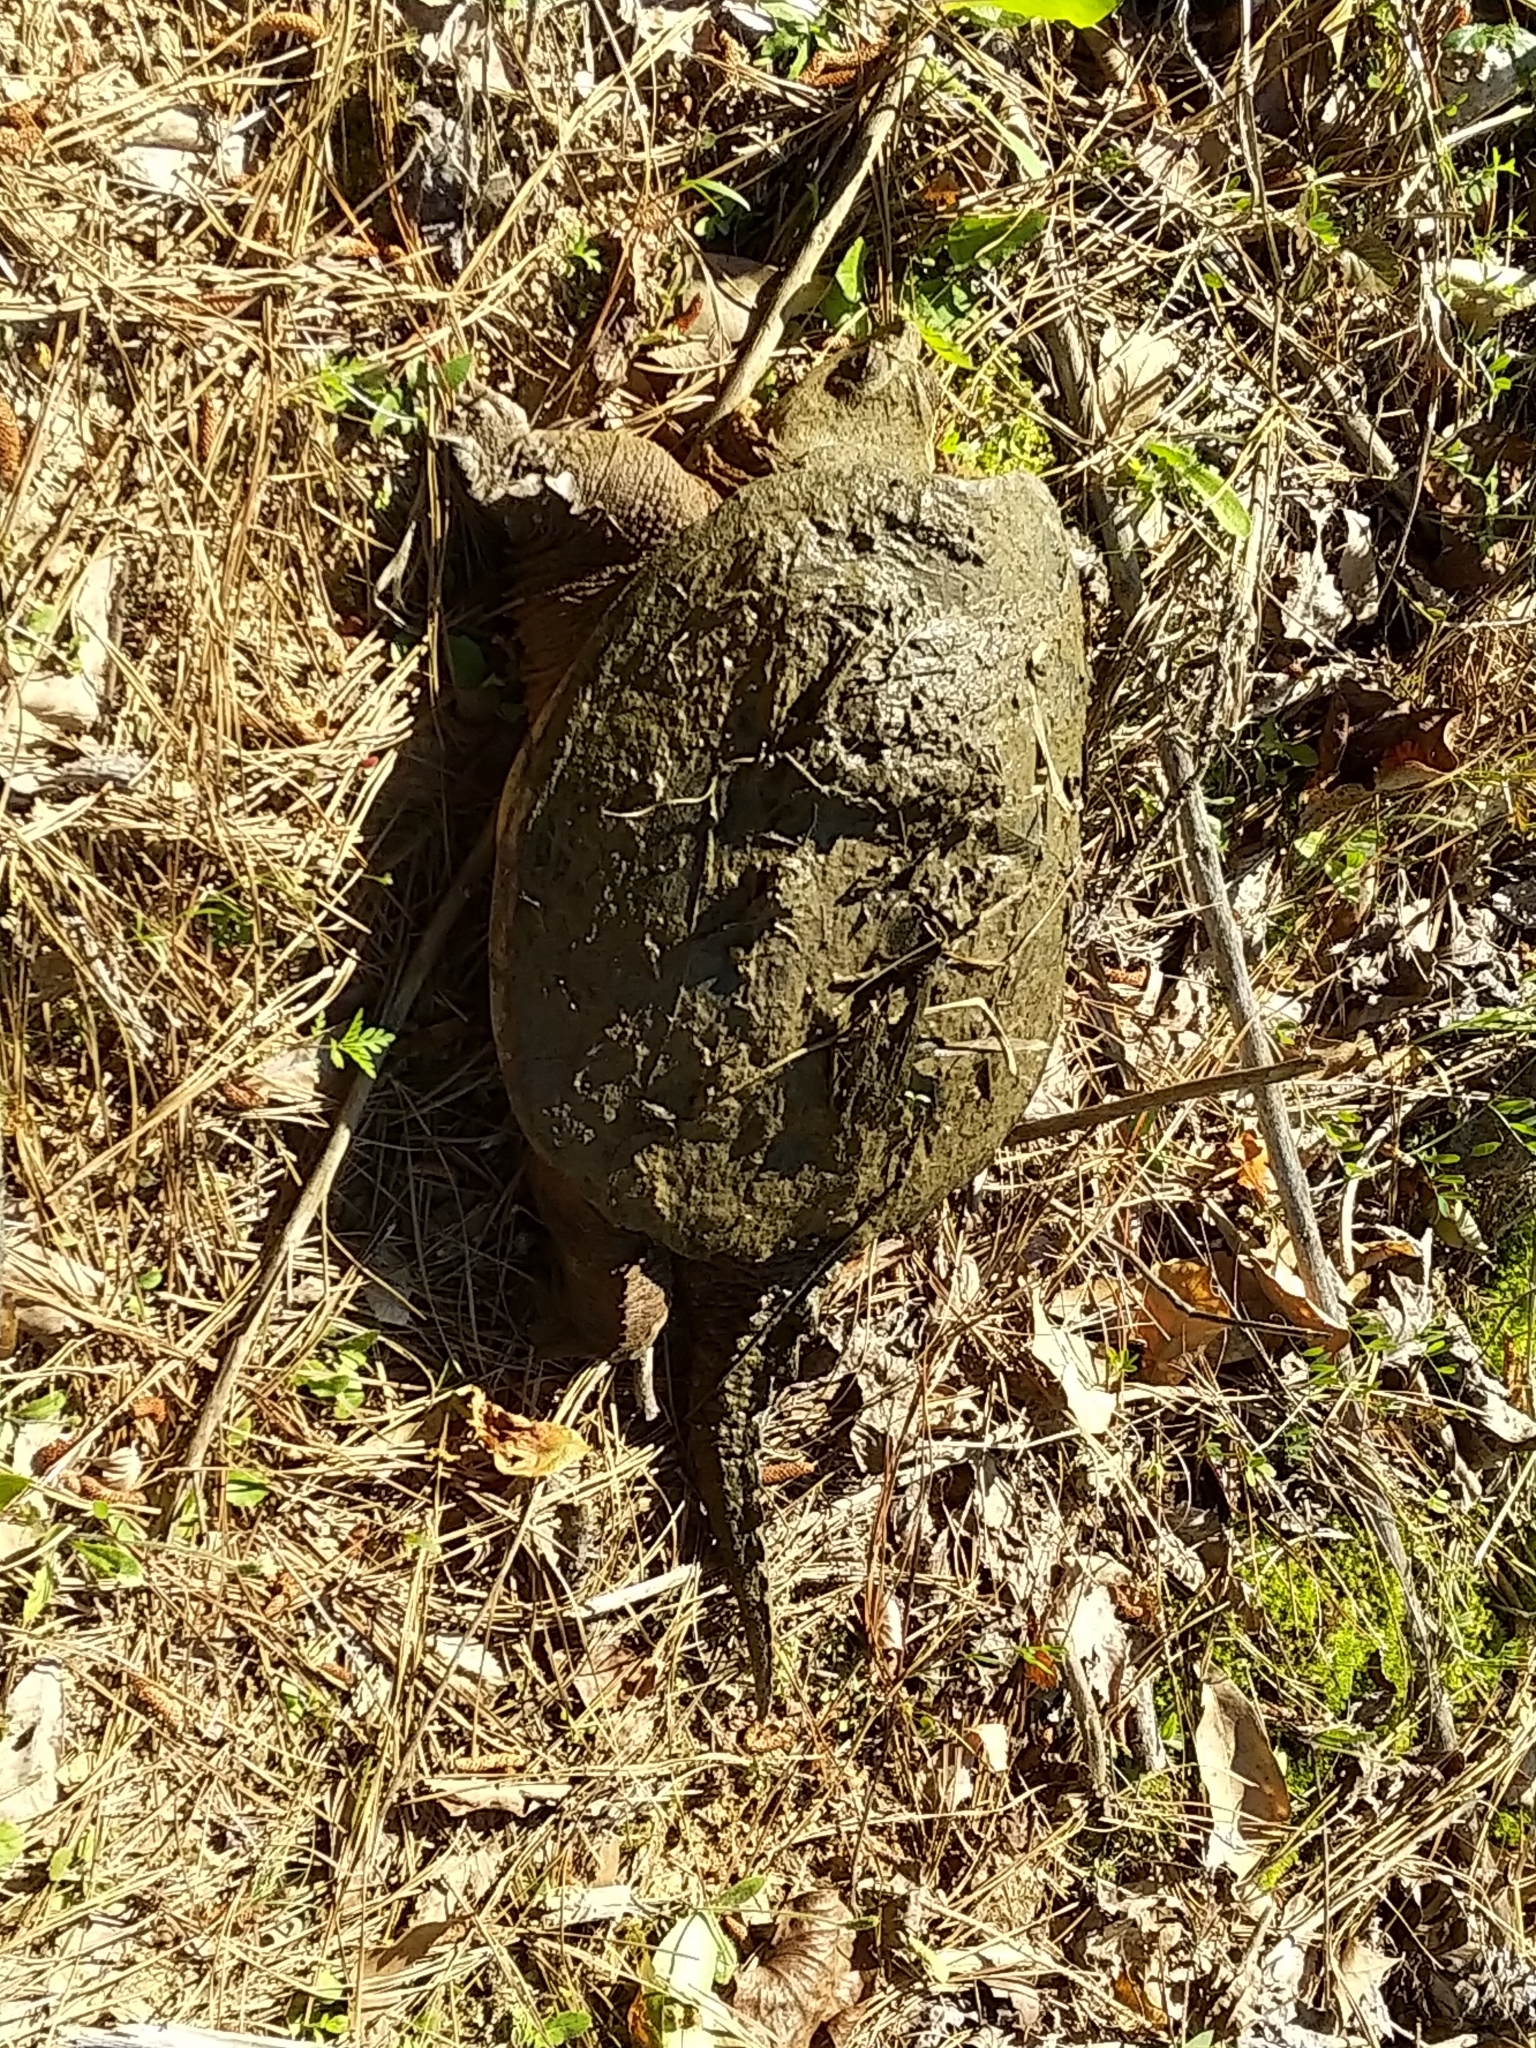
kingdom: Animalia
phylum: Chordata
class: Testudines
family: Chelydridae
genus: Chelydra
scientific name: Chelydra serpentina
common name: Common snapping turtle
